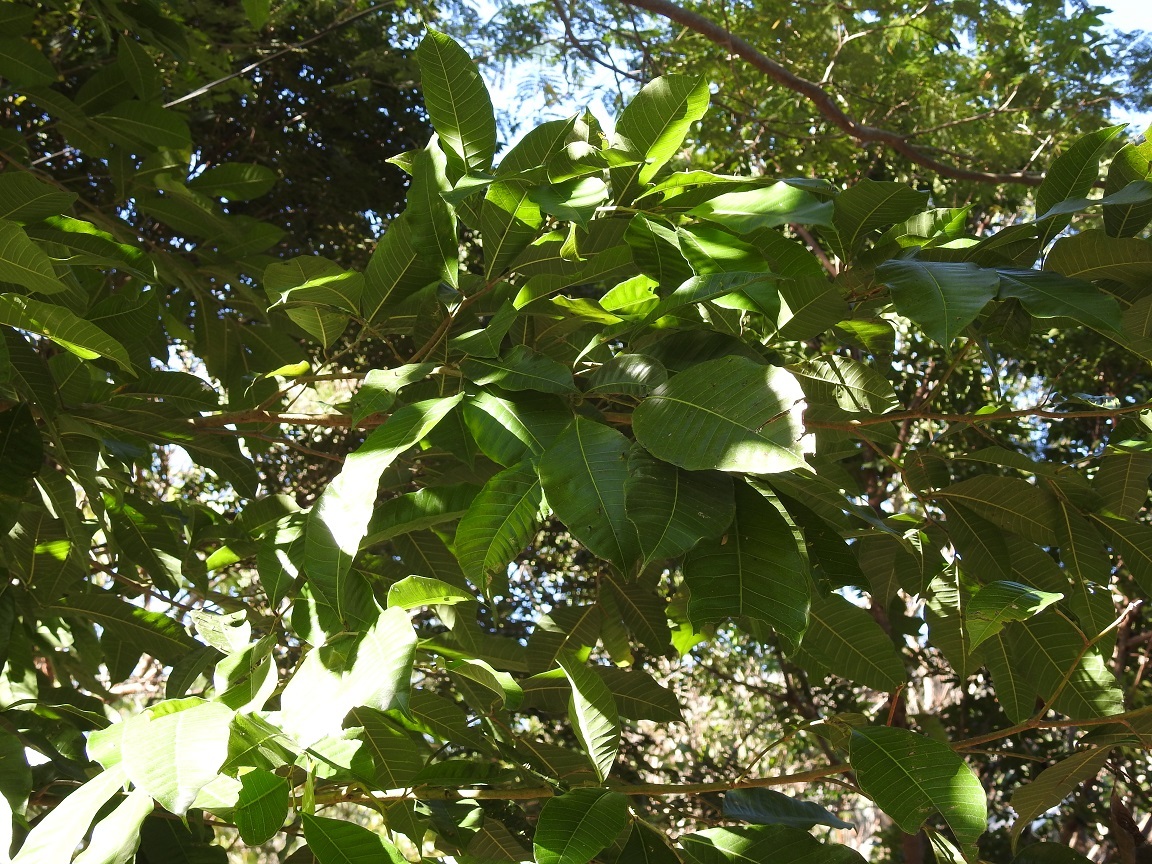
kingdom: Plantae
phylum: Tracheophyta
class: Magnoliopsida
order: Rosales
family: Moraceae
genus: Brosimum
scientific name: Brosimum alicastrum
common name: Breadnut
